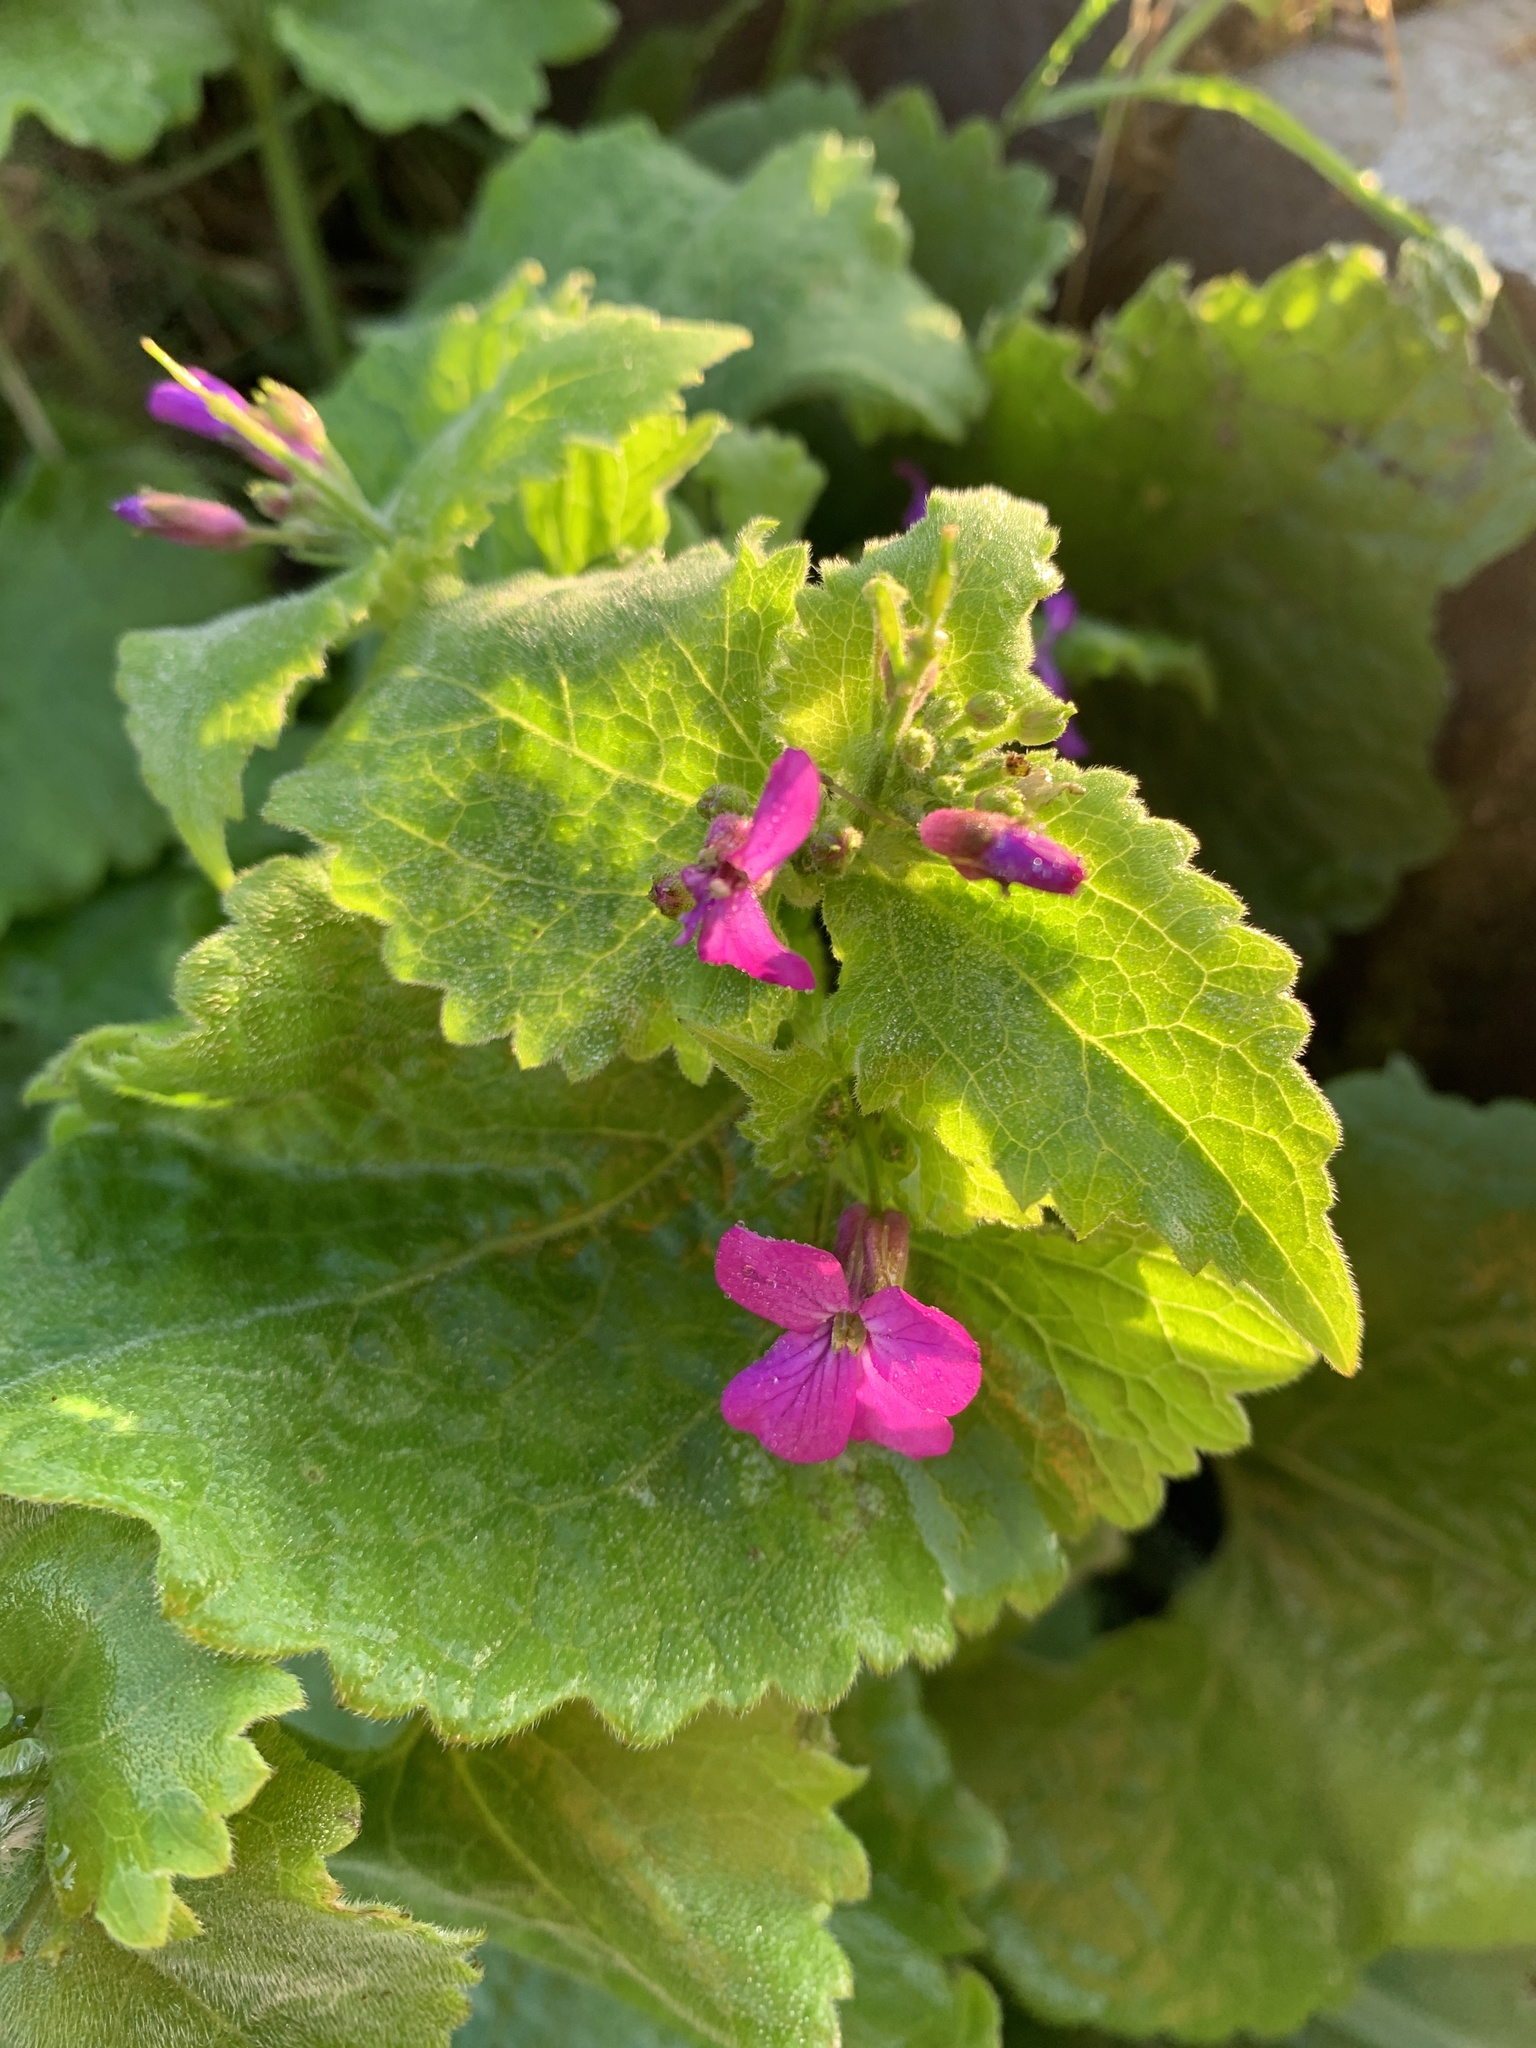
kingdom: Plantae
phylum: Tracheophyta
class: Magnoliopsida
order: Brassicales
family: Brassicaceae
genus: Lunaria
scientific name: Lunaria annua
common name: Honesty
